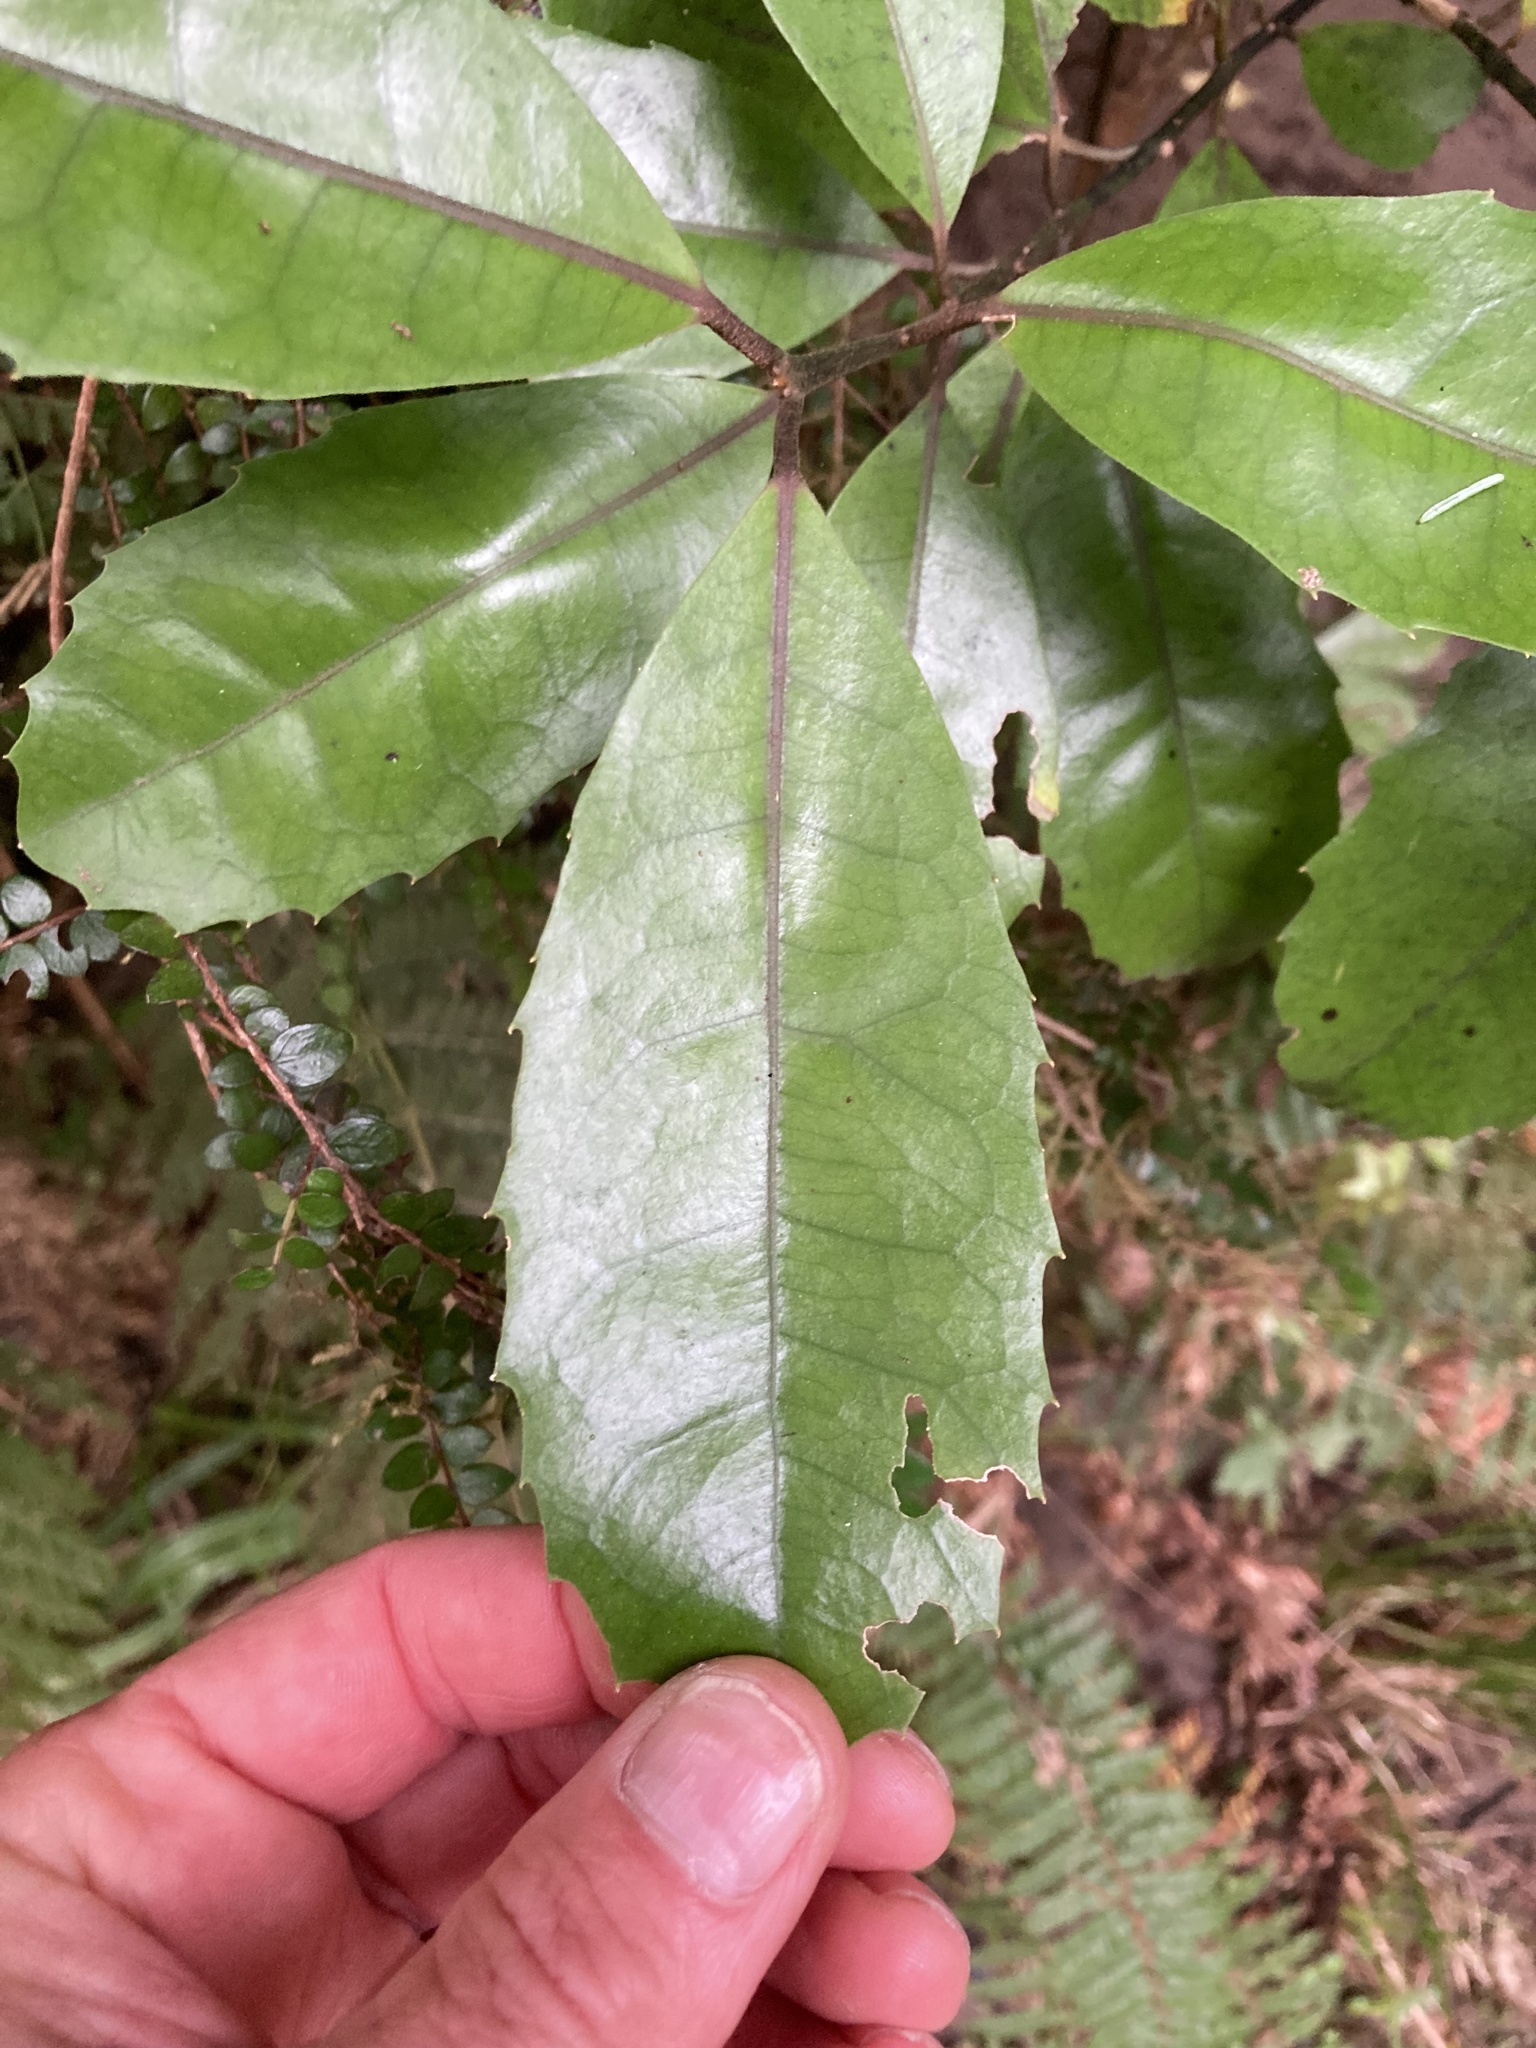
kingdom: Plantae
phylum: Tracheophyta
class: Magnoliopsida
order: Laurales
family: Monimiaceae
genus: Hedycarya
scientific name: Hedycarya arborea
